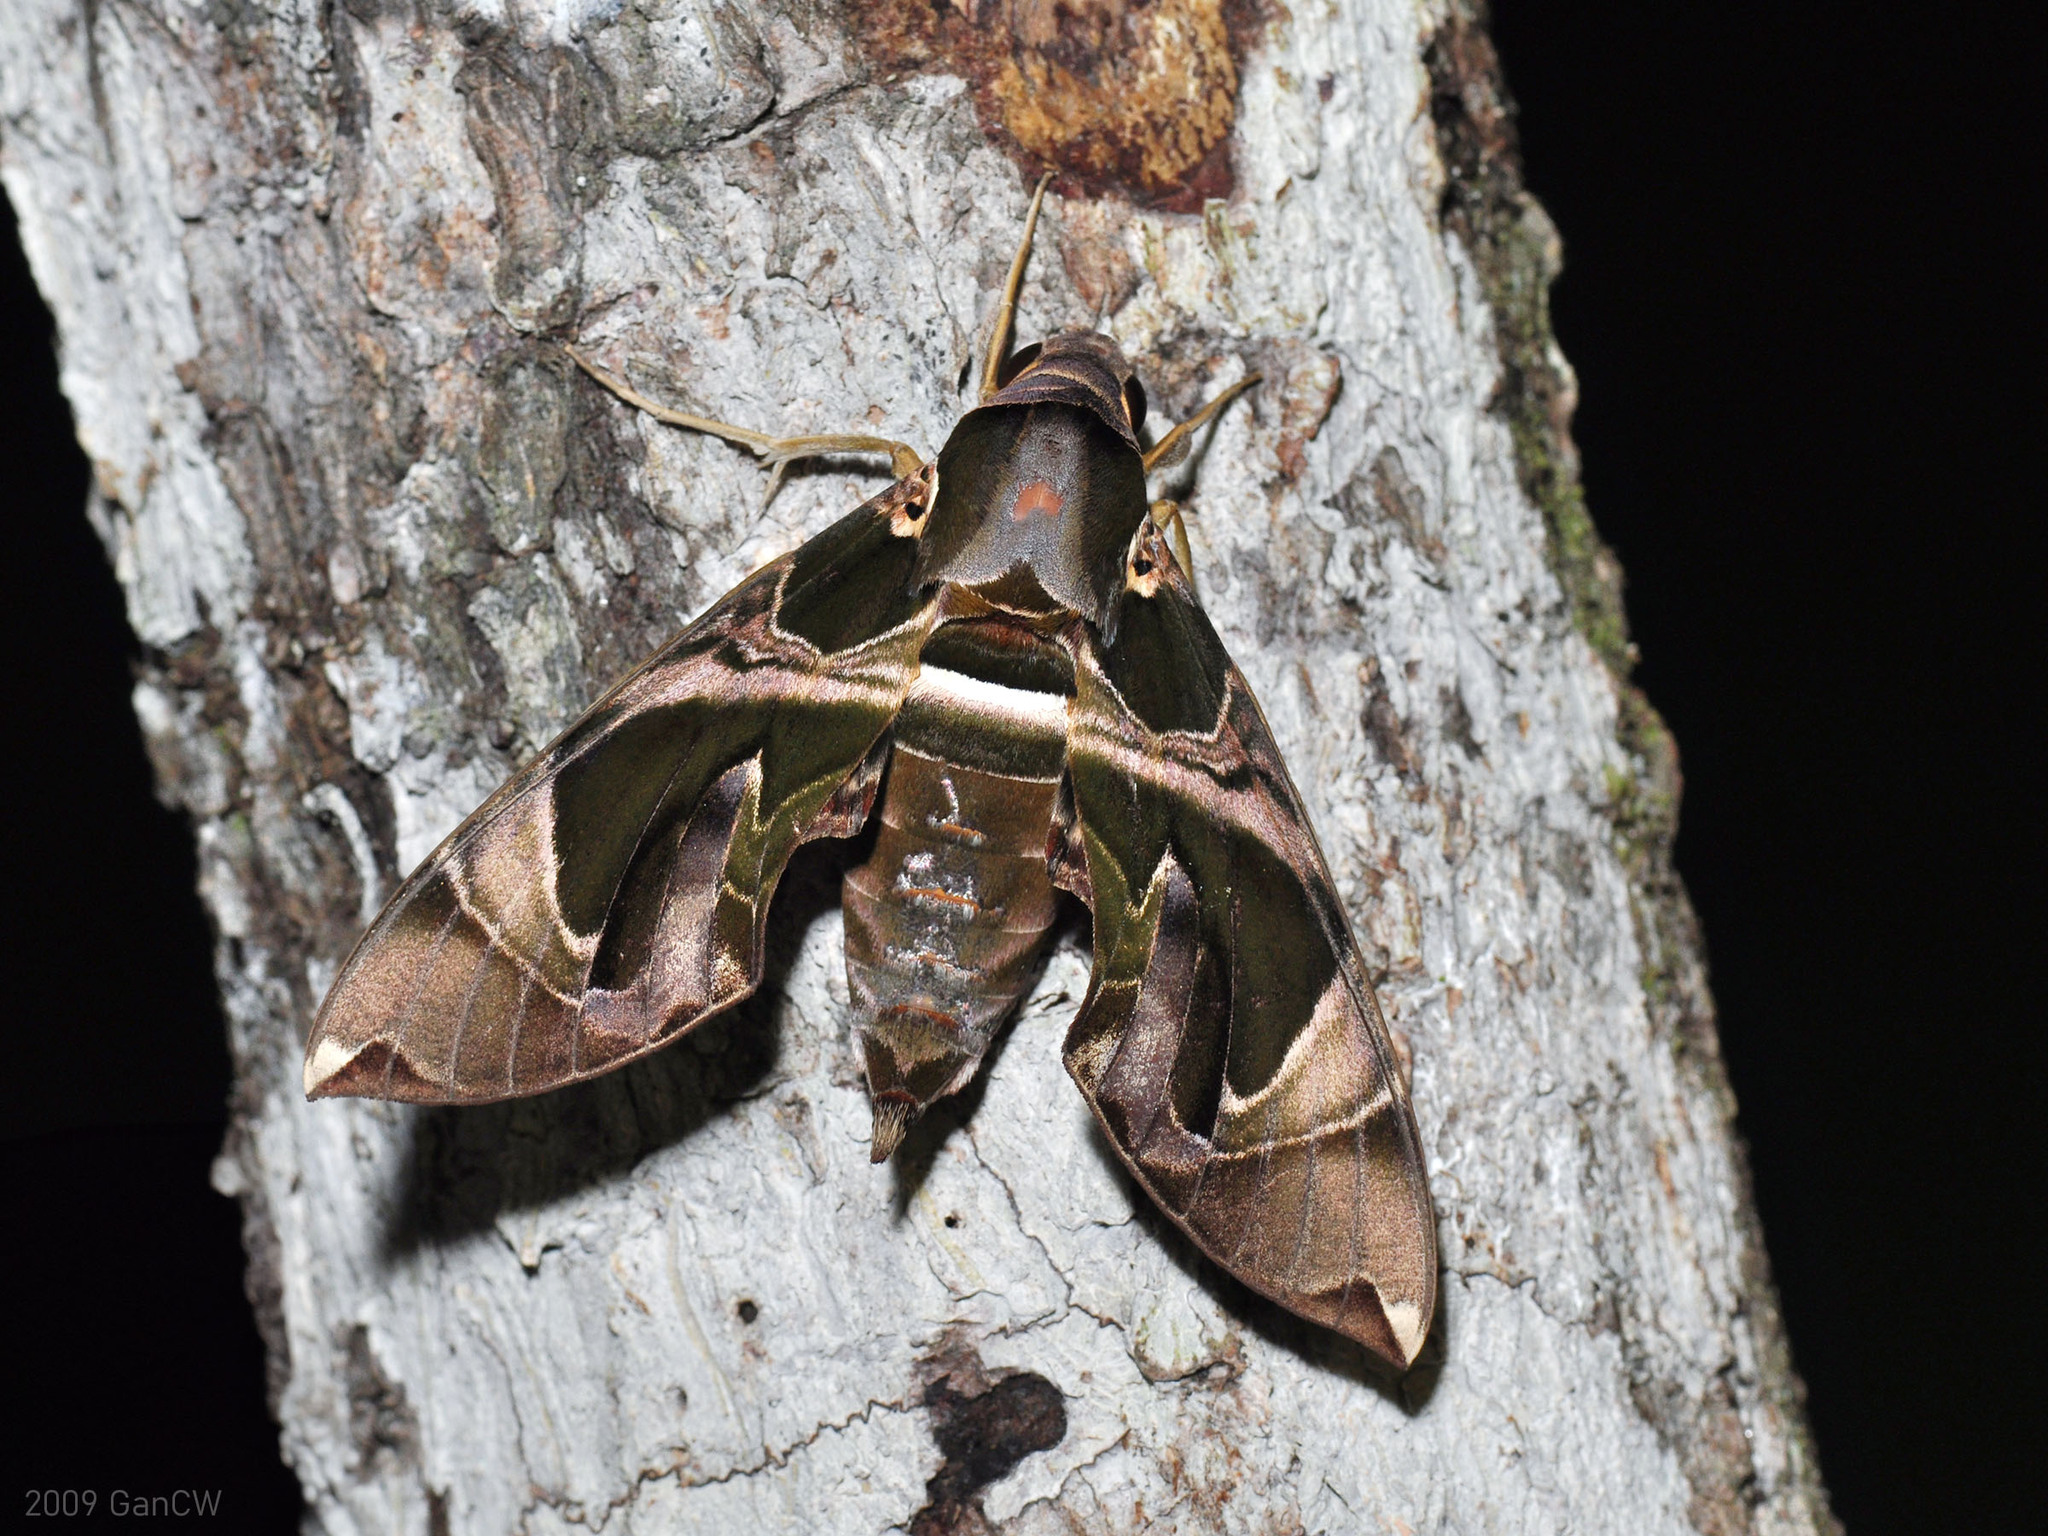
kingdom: Animalia
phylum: Arthropoda
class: Insecta
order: Lepidoptera
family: Sphingidae
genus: Daphnis
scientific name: Daphnis hypothous
